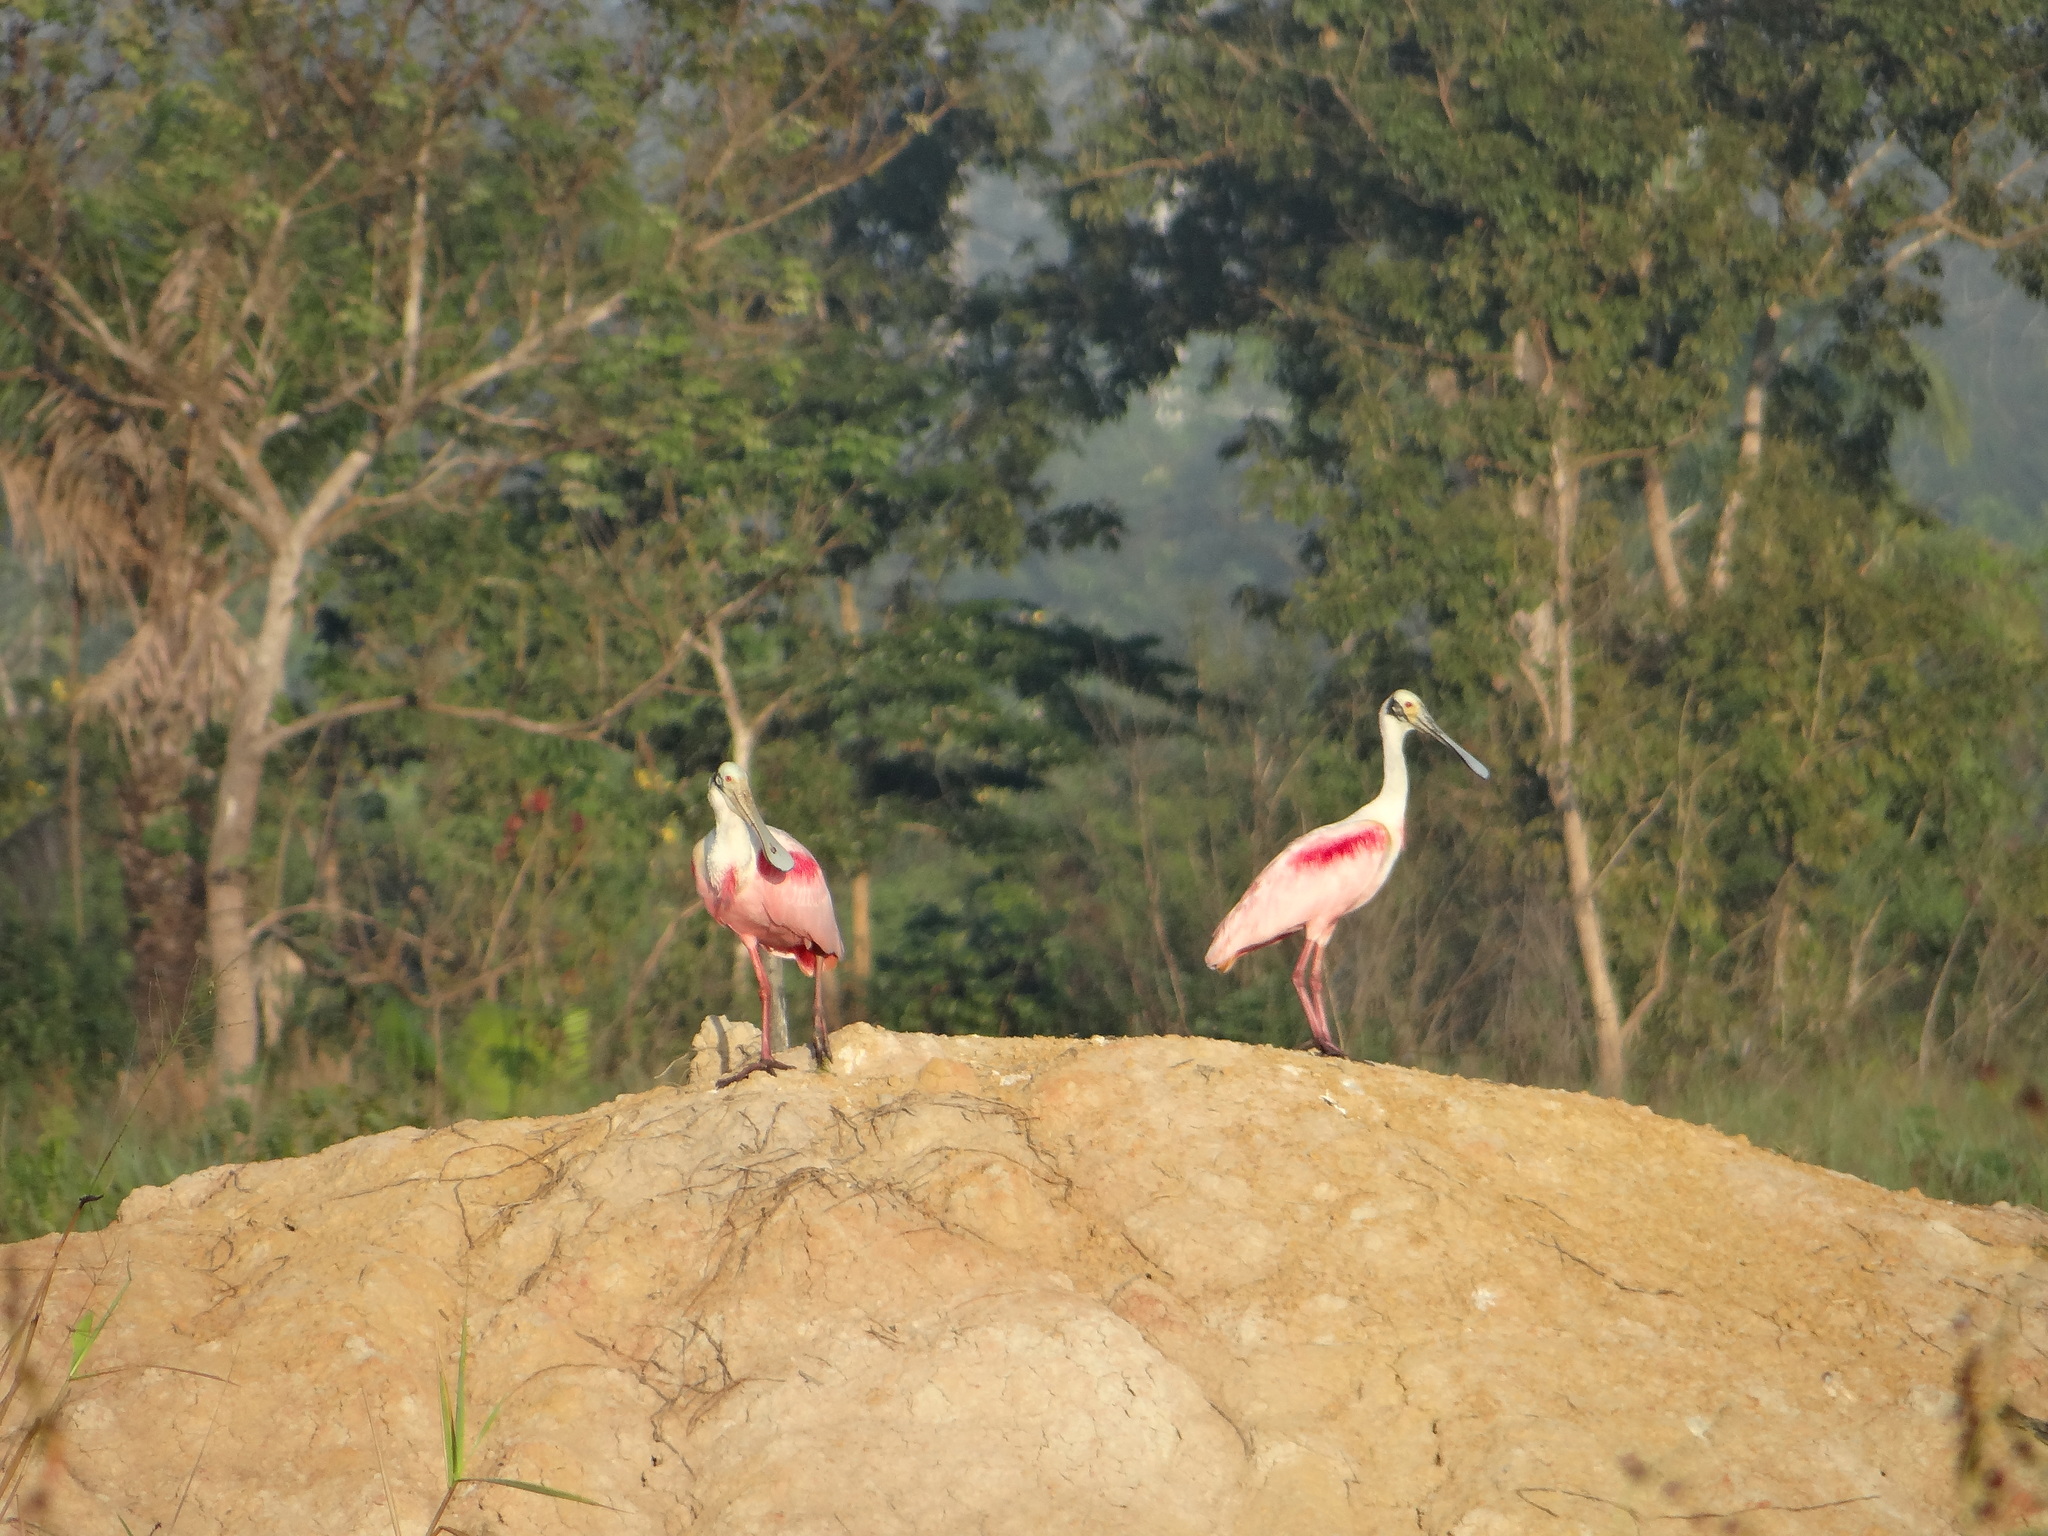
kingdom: Animalia
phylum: Chordata
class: Aves
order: Pelecaniformes
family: Threskiornithidae
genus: Platalea
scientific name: Platalea ajaja
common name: Roseate spoonbill
